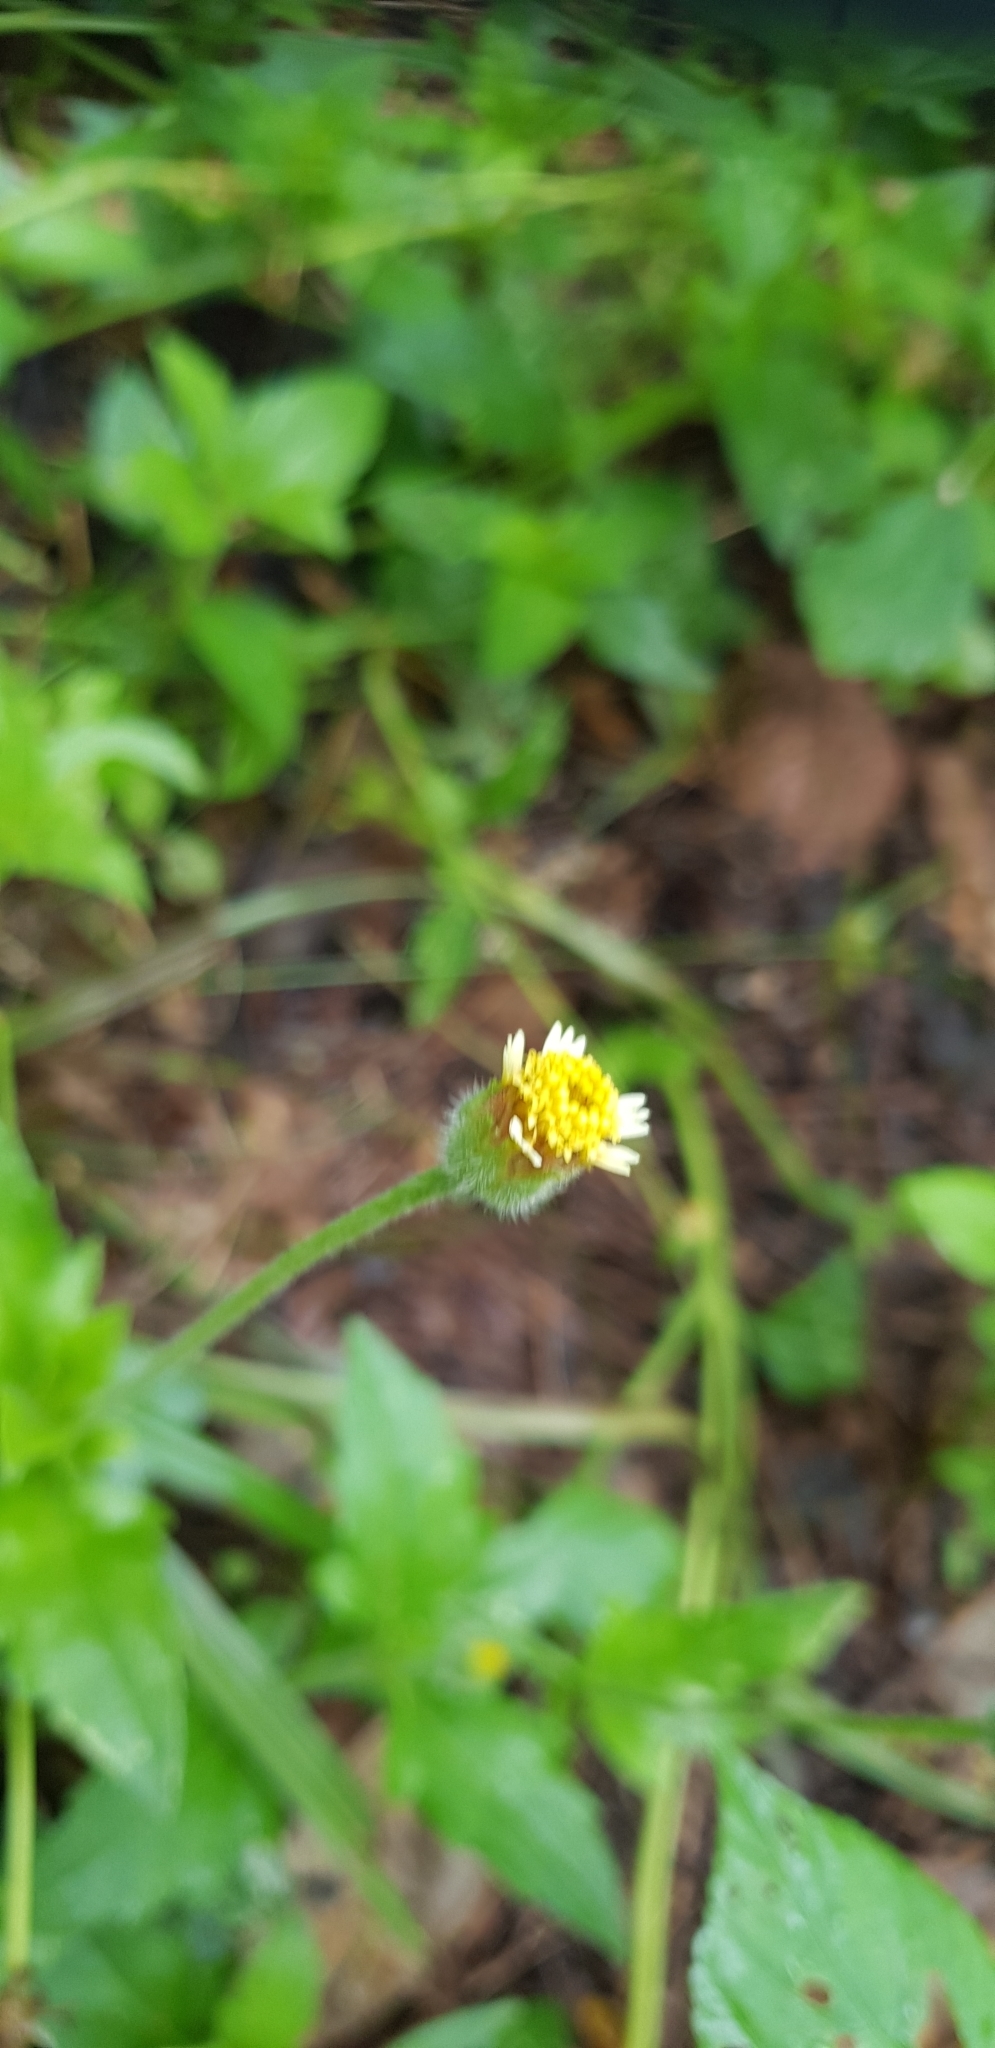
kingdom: Plantae
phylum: Tracheophyta
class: Magnoliopsida
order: Asterales
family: Asteraceae
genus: Tridax
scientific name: Tridax procumbens
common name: Coatbuttons
